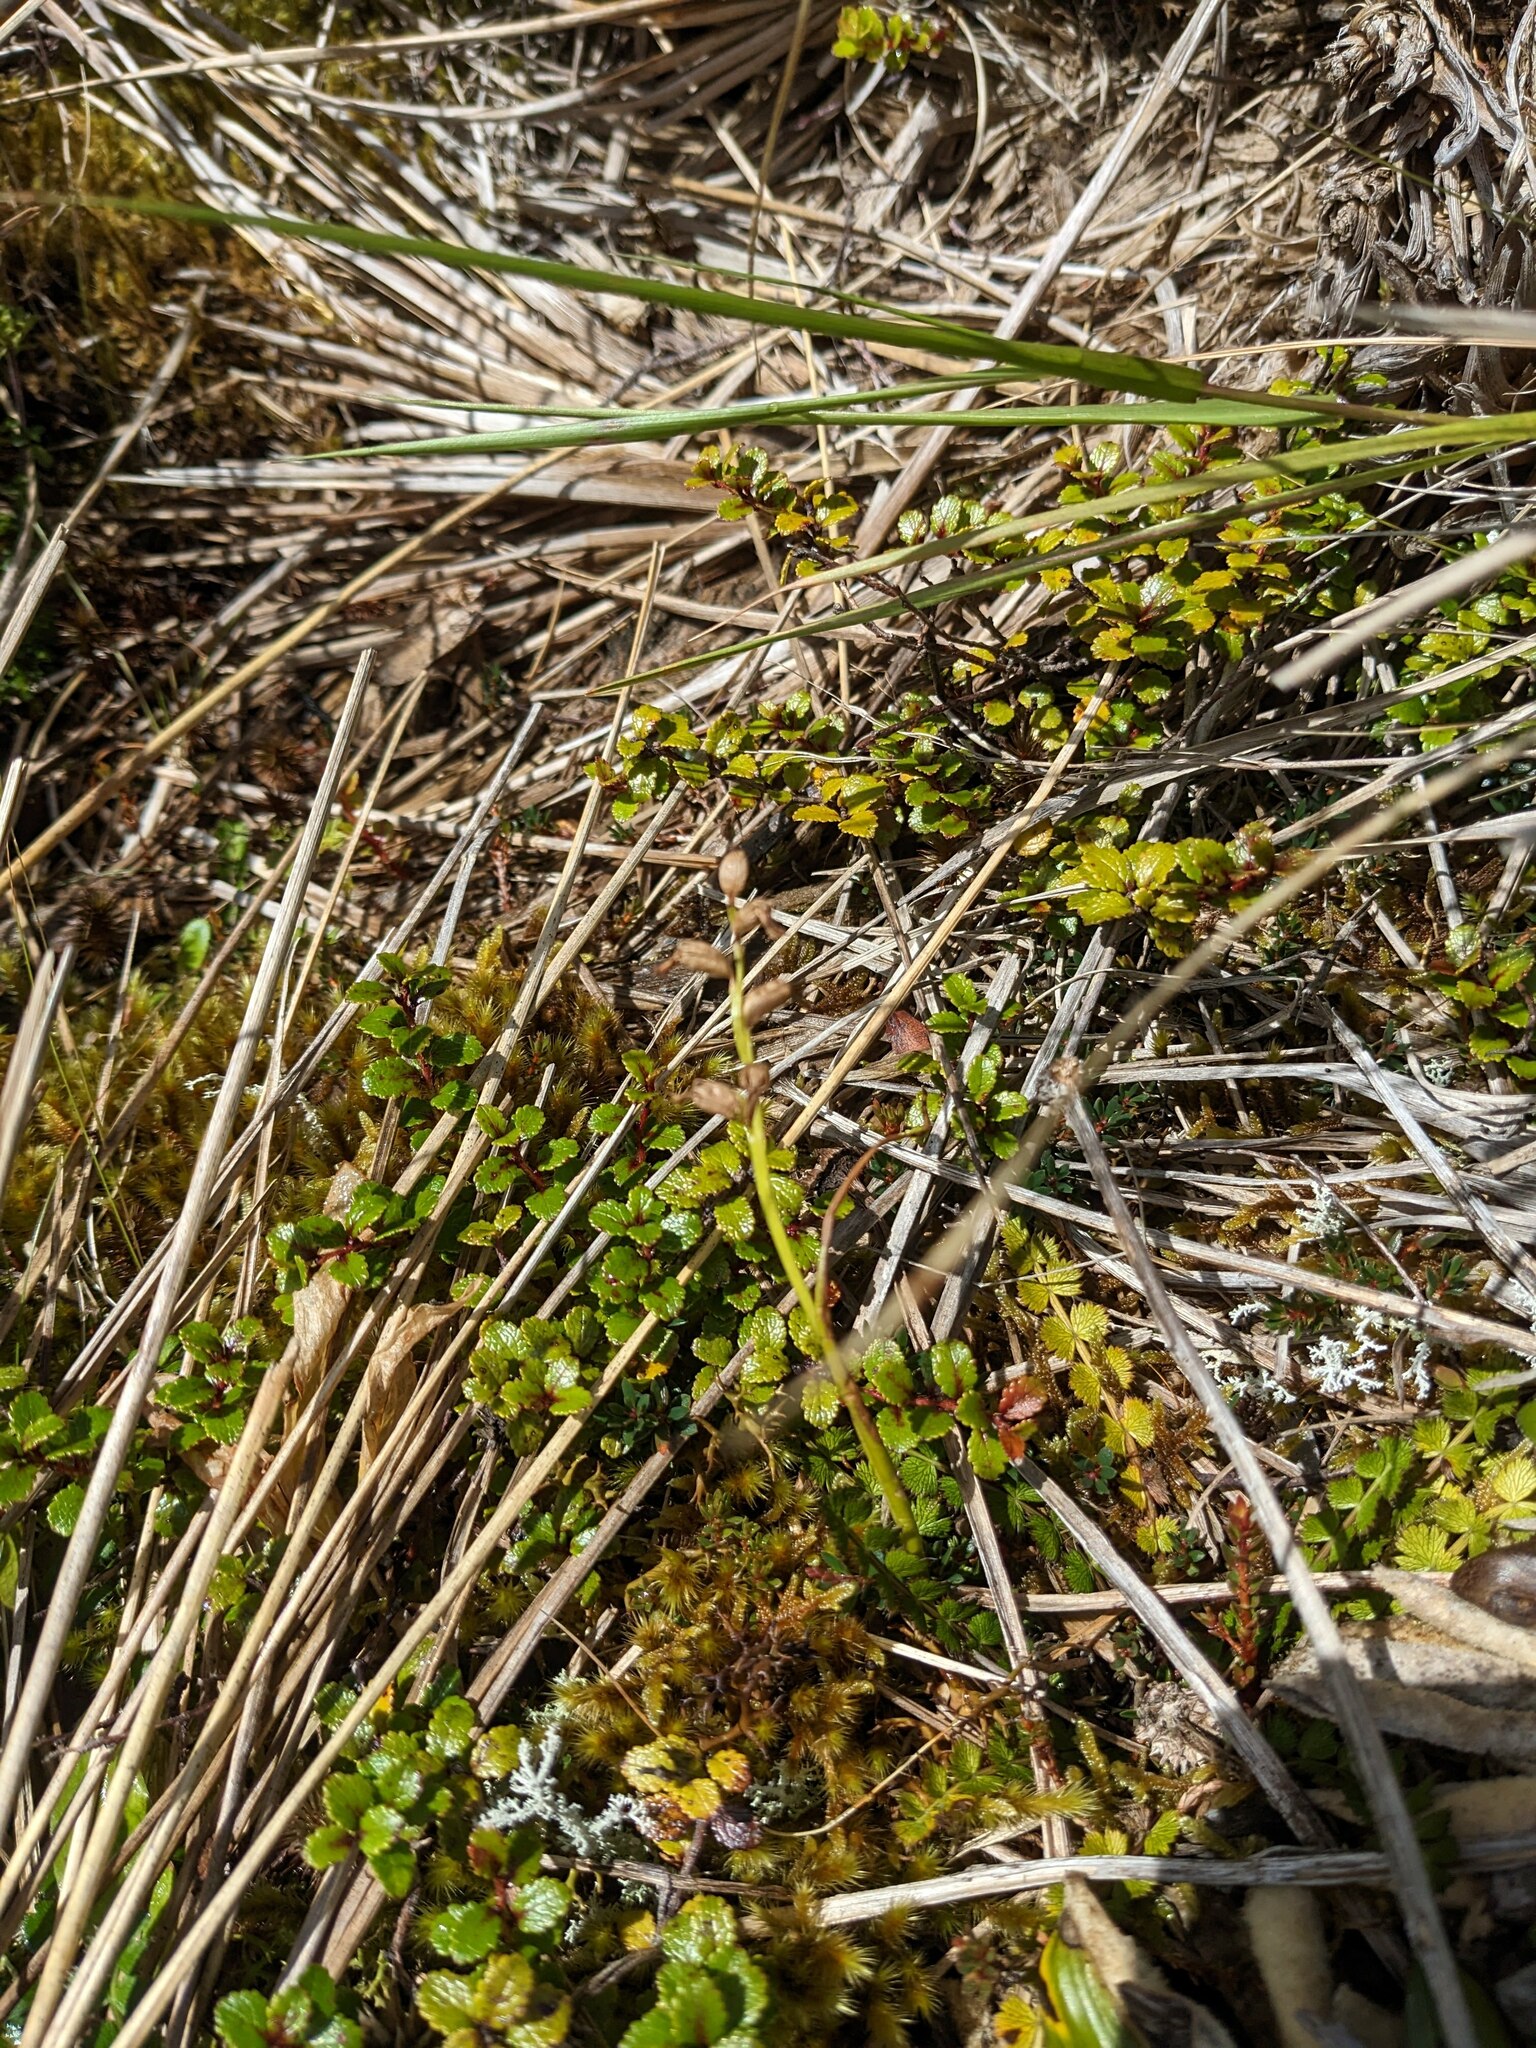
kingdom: Plantae
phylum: Tracheophyta
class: Liliopsida
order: Asparagales
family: Orchidaceae
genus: Prasophyllum
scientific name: Prasophyllum colensoi
